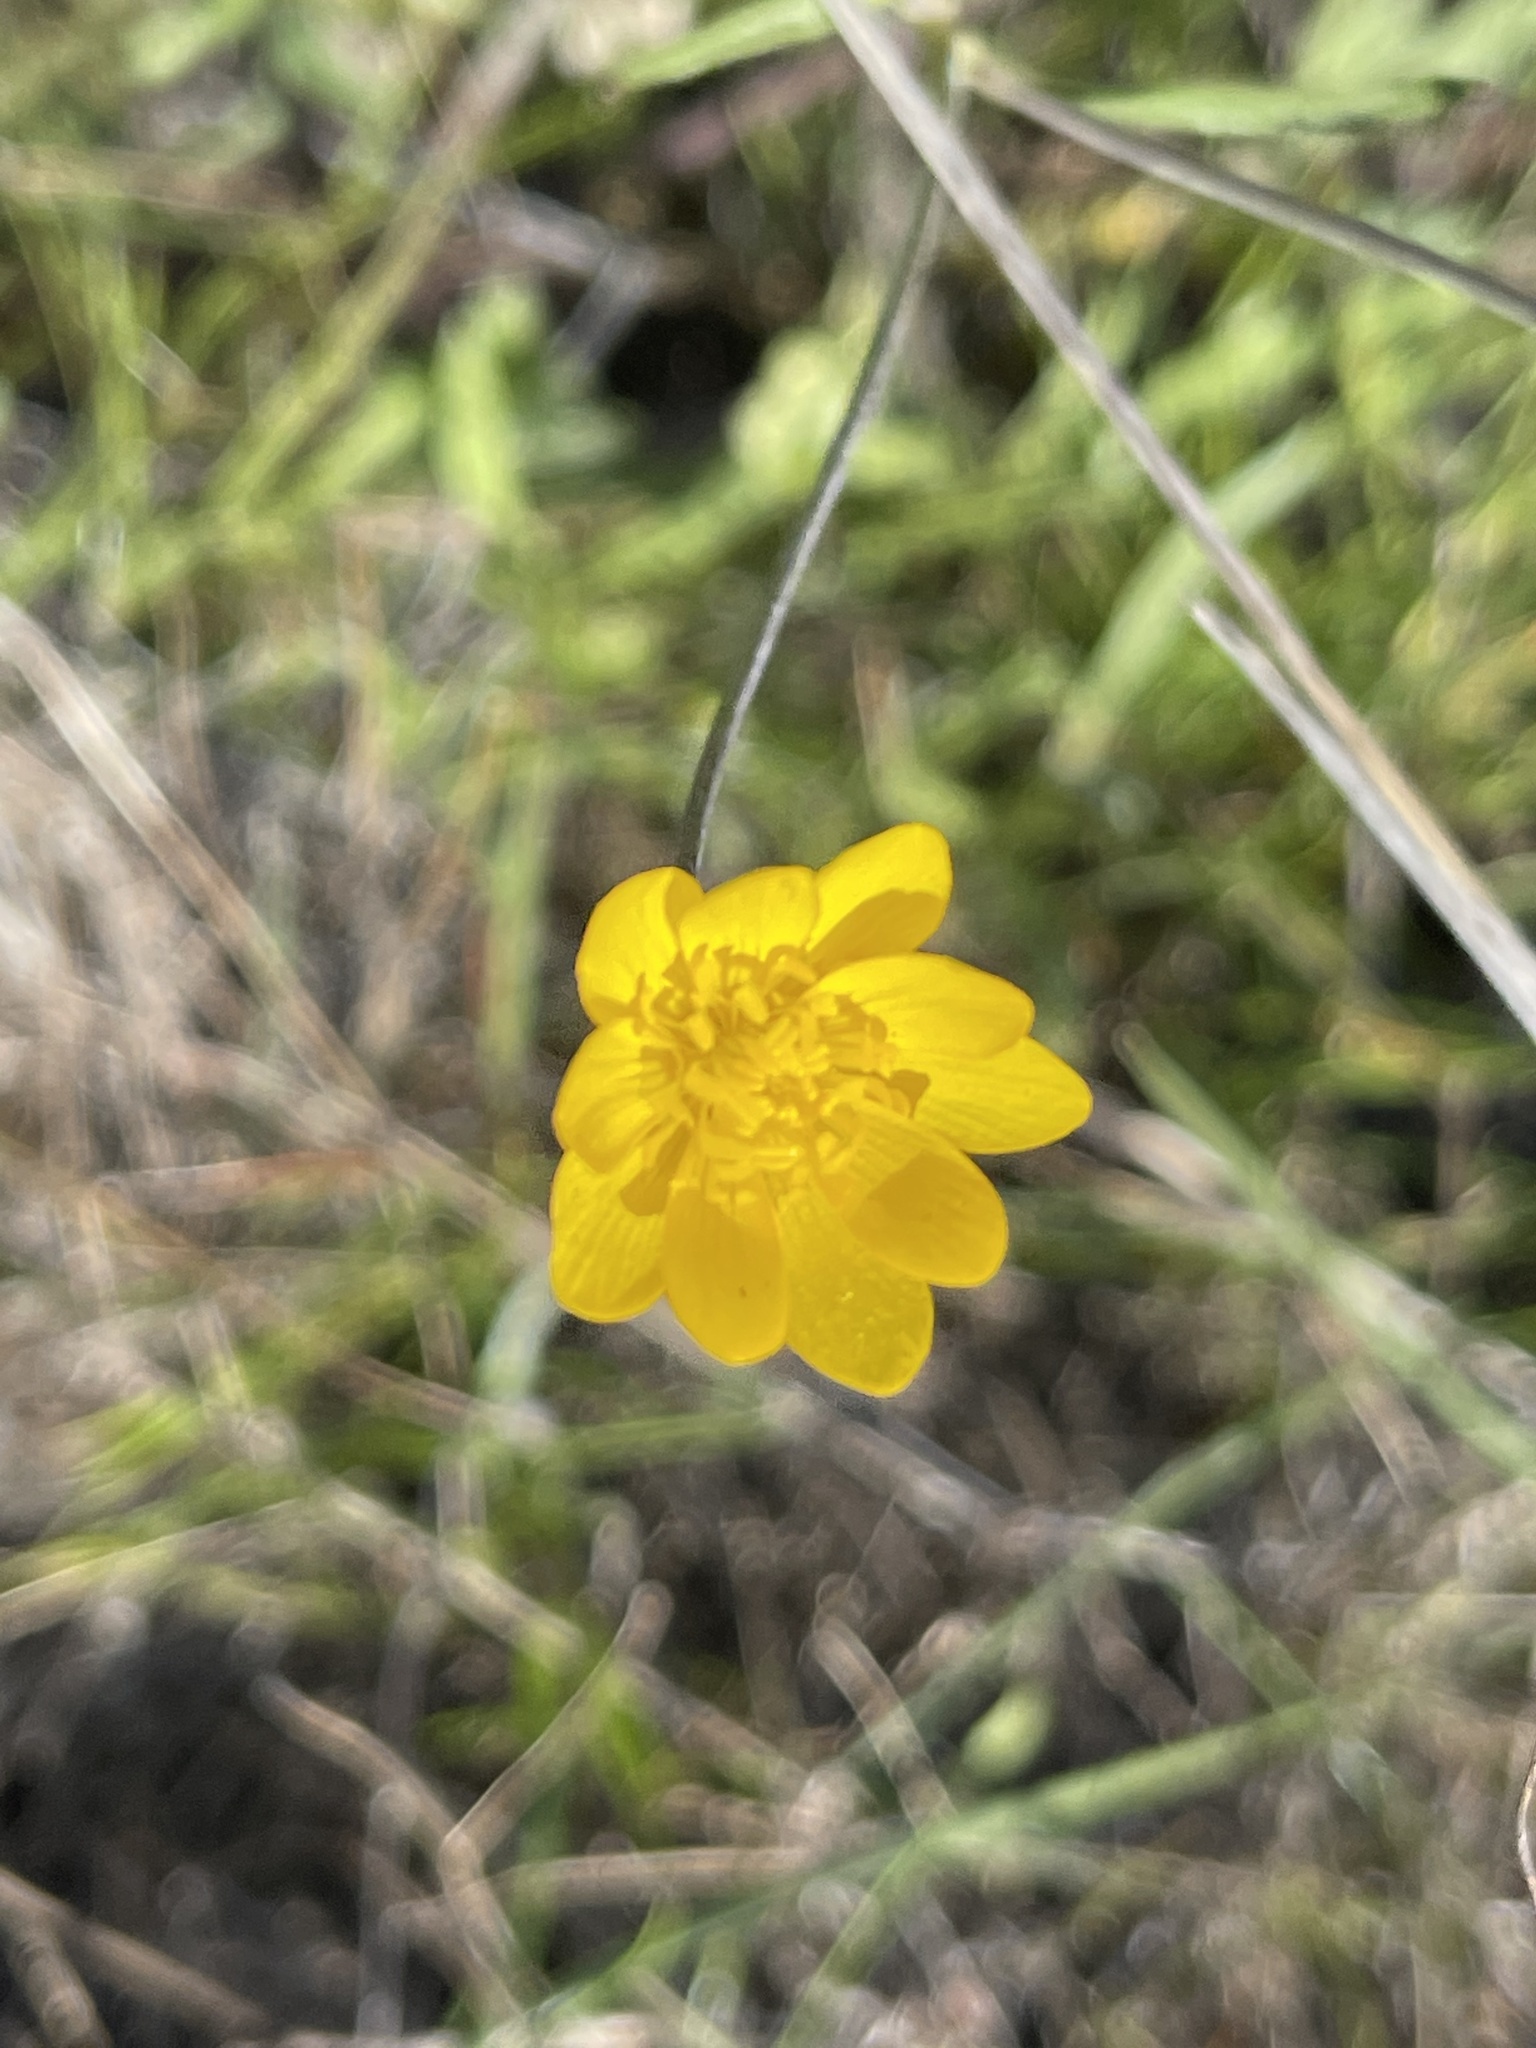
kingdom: Plantae
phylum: Tracheophyta
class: Magnoliopsida
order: Ranunculales
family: Ranunculaceae
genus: Ranunculus
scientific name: Ranunculus californicus
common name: California buttercup
